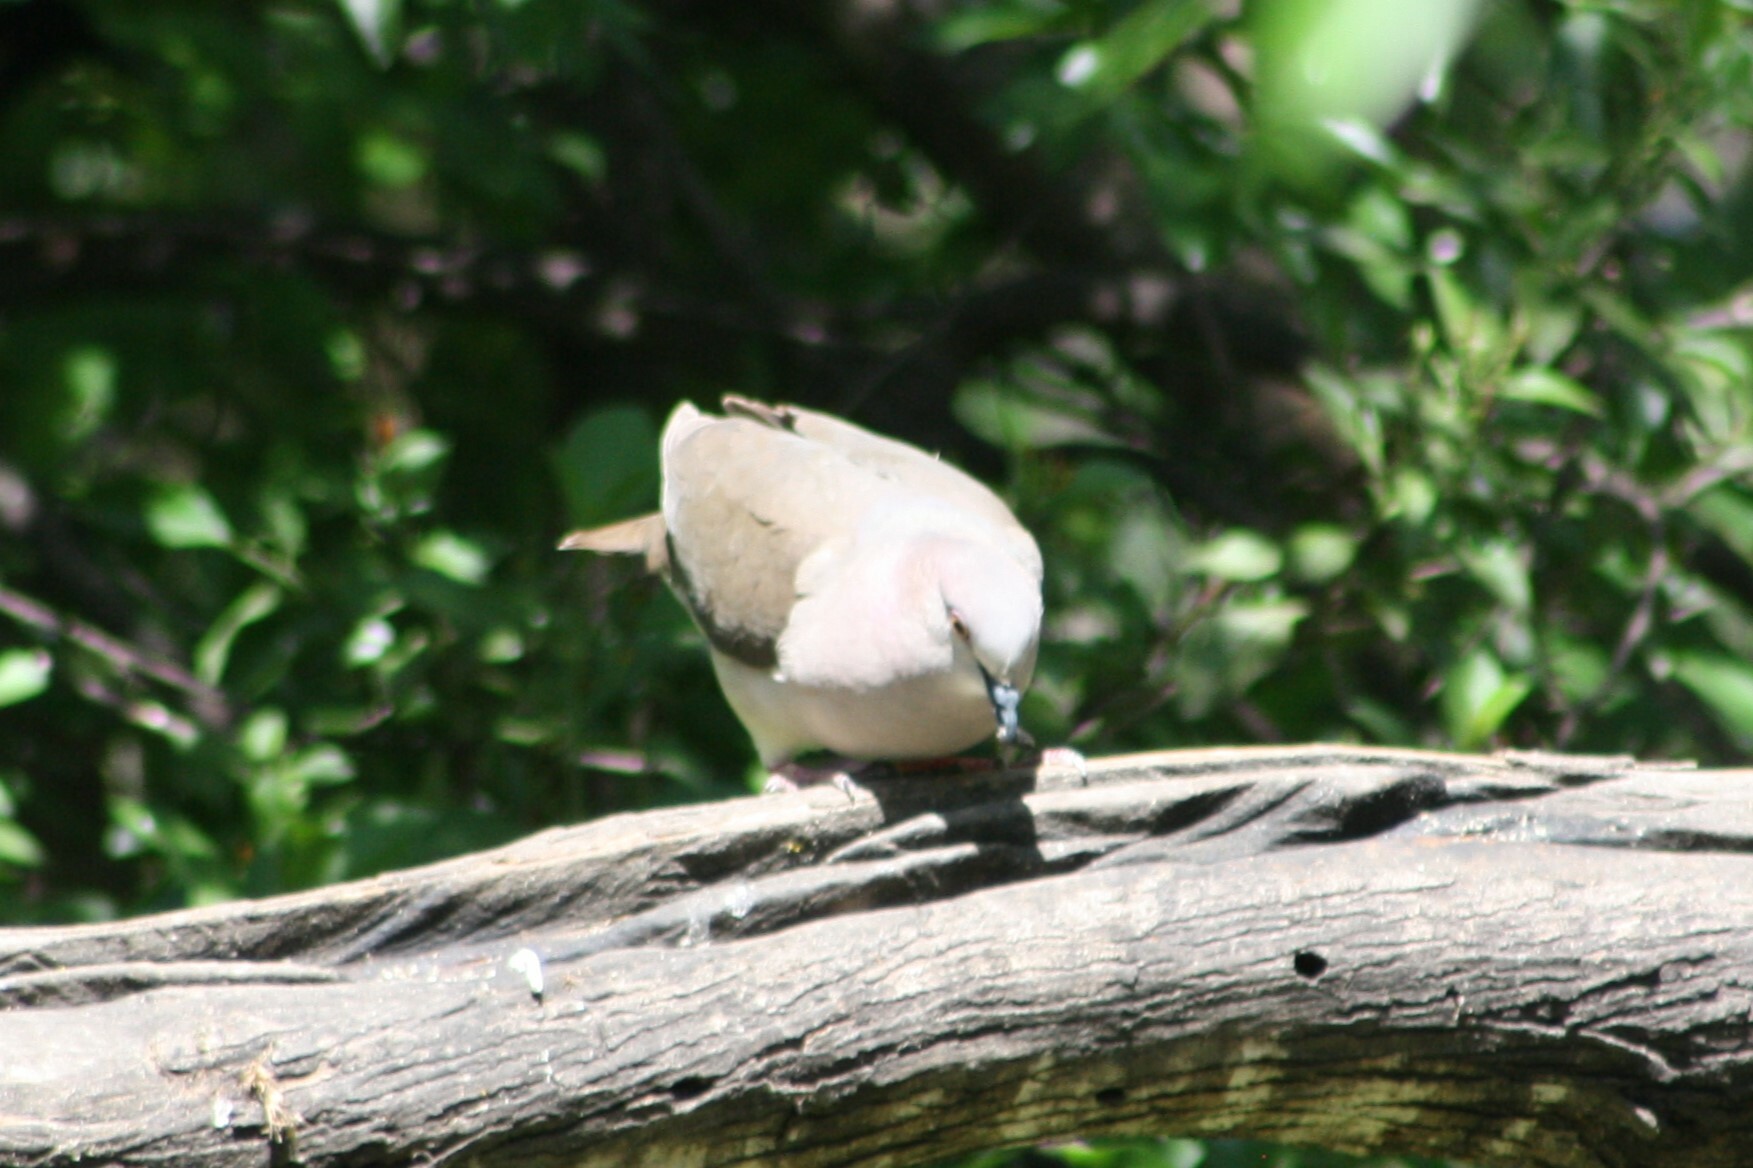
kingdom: Animalia
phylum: Chordata
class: Aves
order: Columbiformes
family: Columbidae
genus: Leptotila
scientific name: Leptotila verreauxi
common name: White-tipped dove
